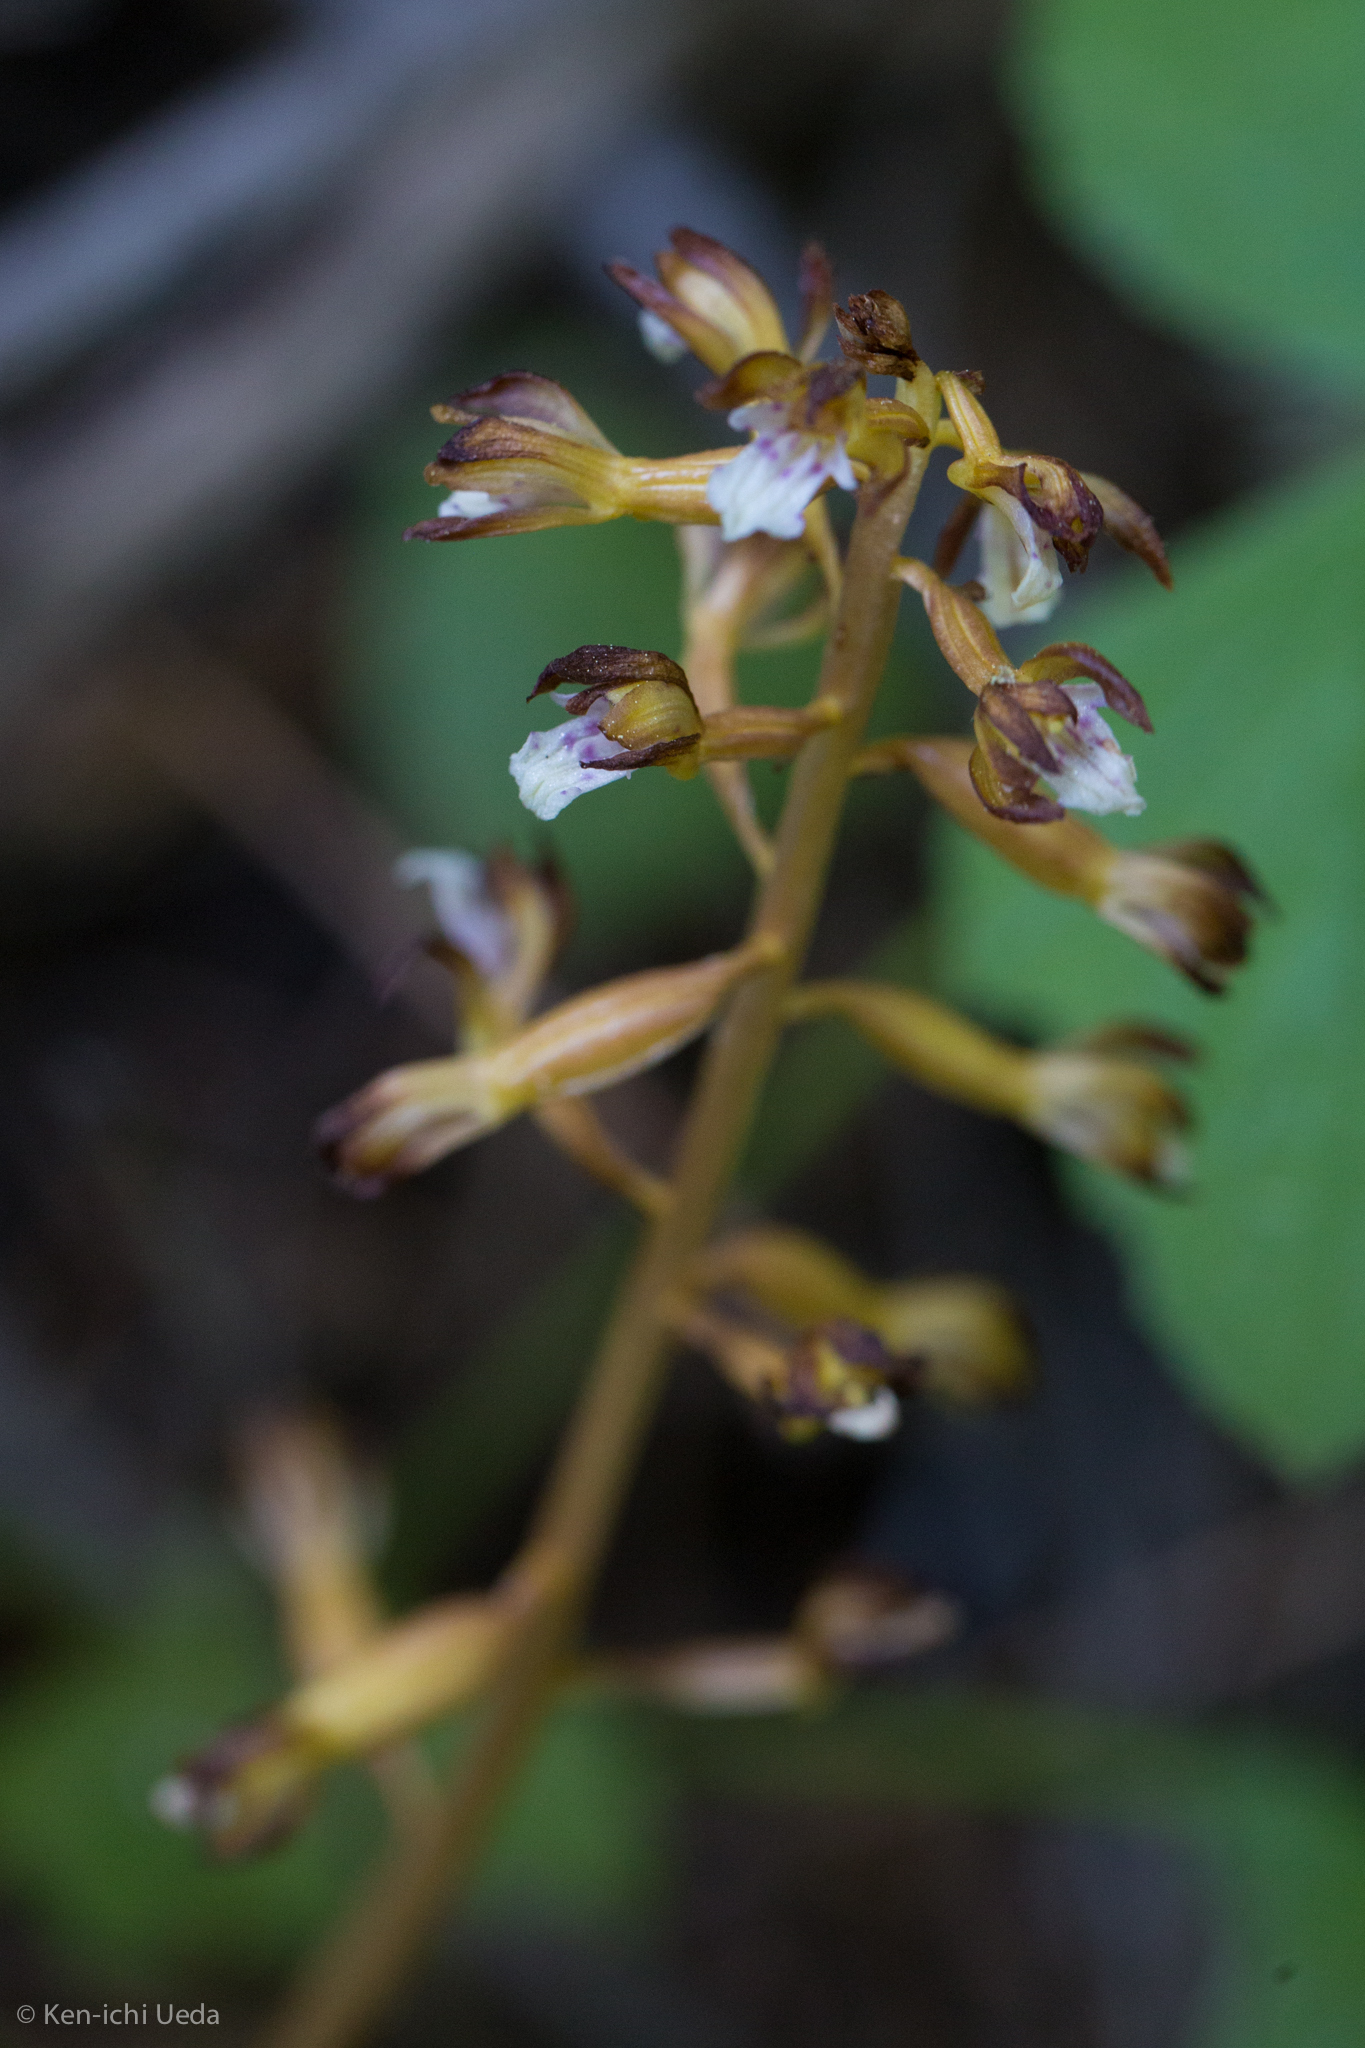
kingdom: Plantae
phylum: Tracheophyta
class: Liliopsida
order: Asparagales
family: Orchidaceae
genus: Corallorhiza
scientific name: Corallorhiza maculata
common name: Spotted coralroot
